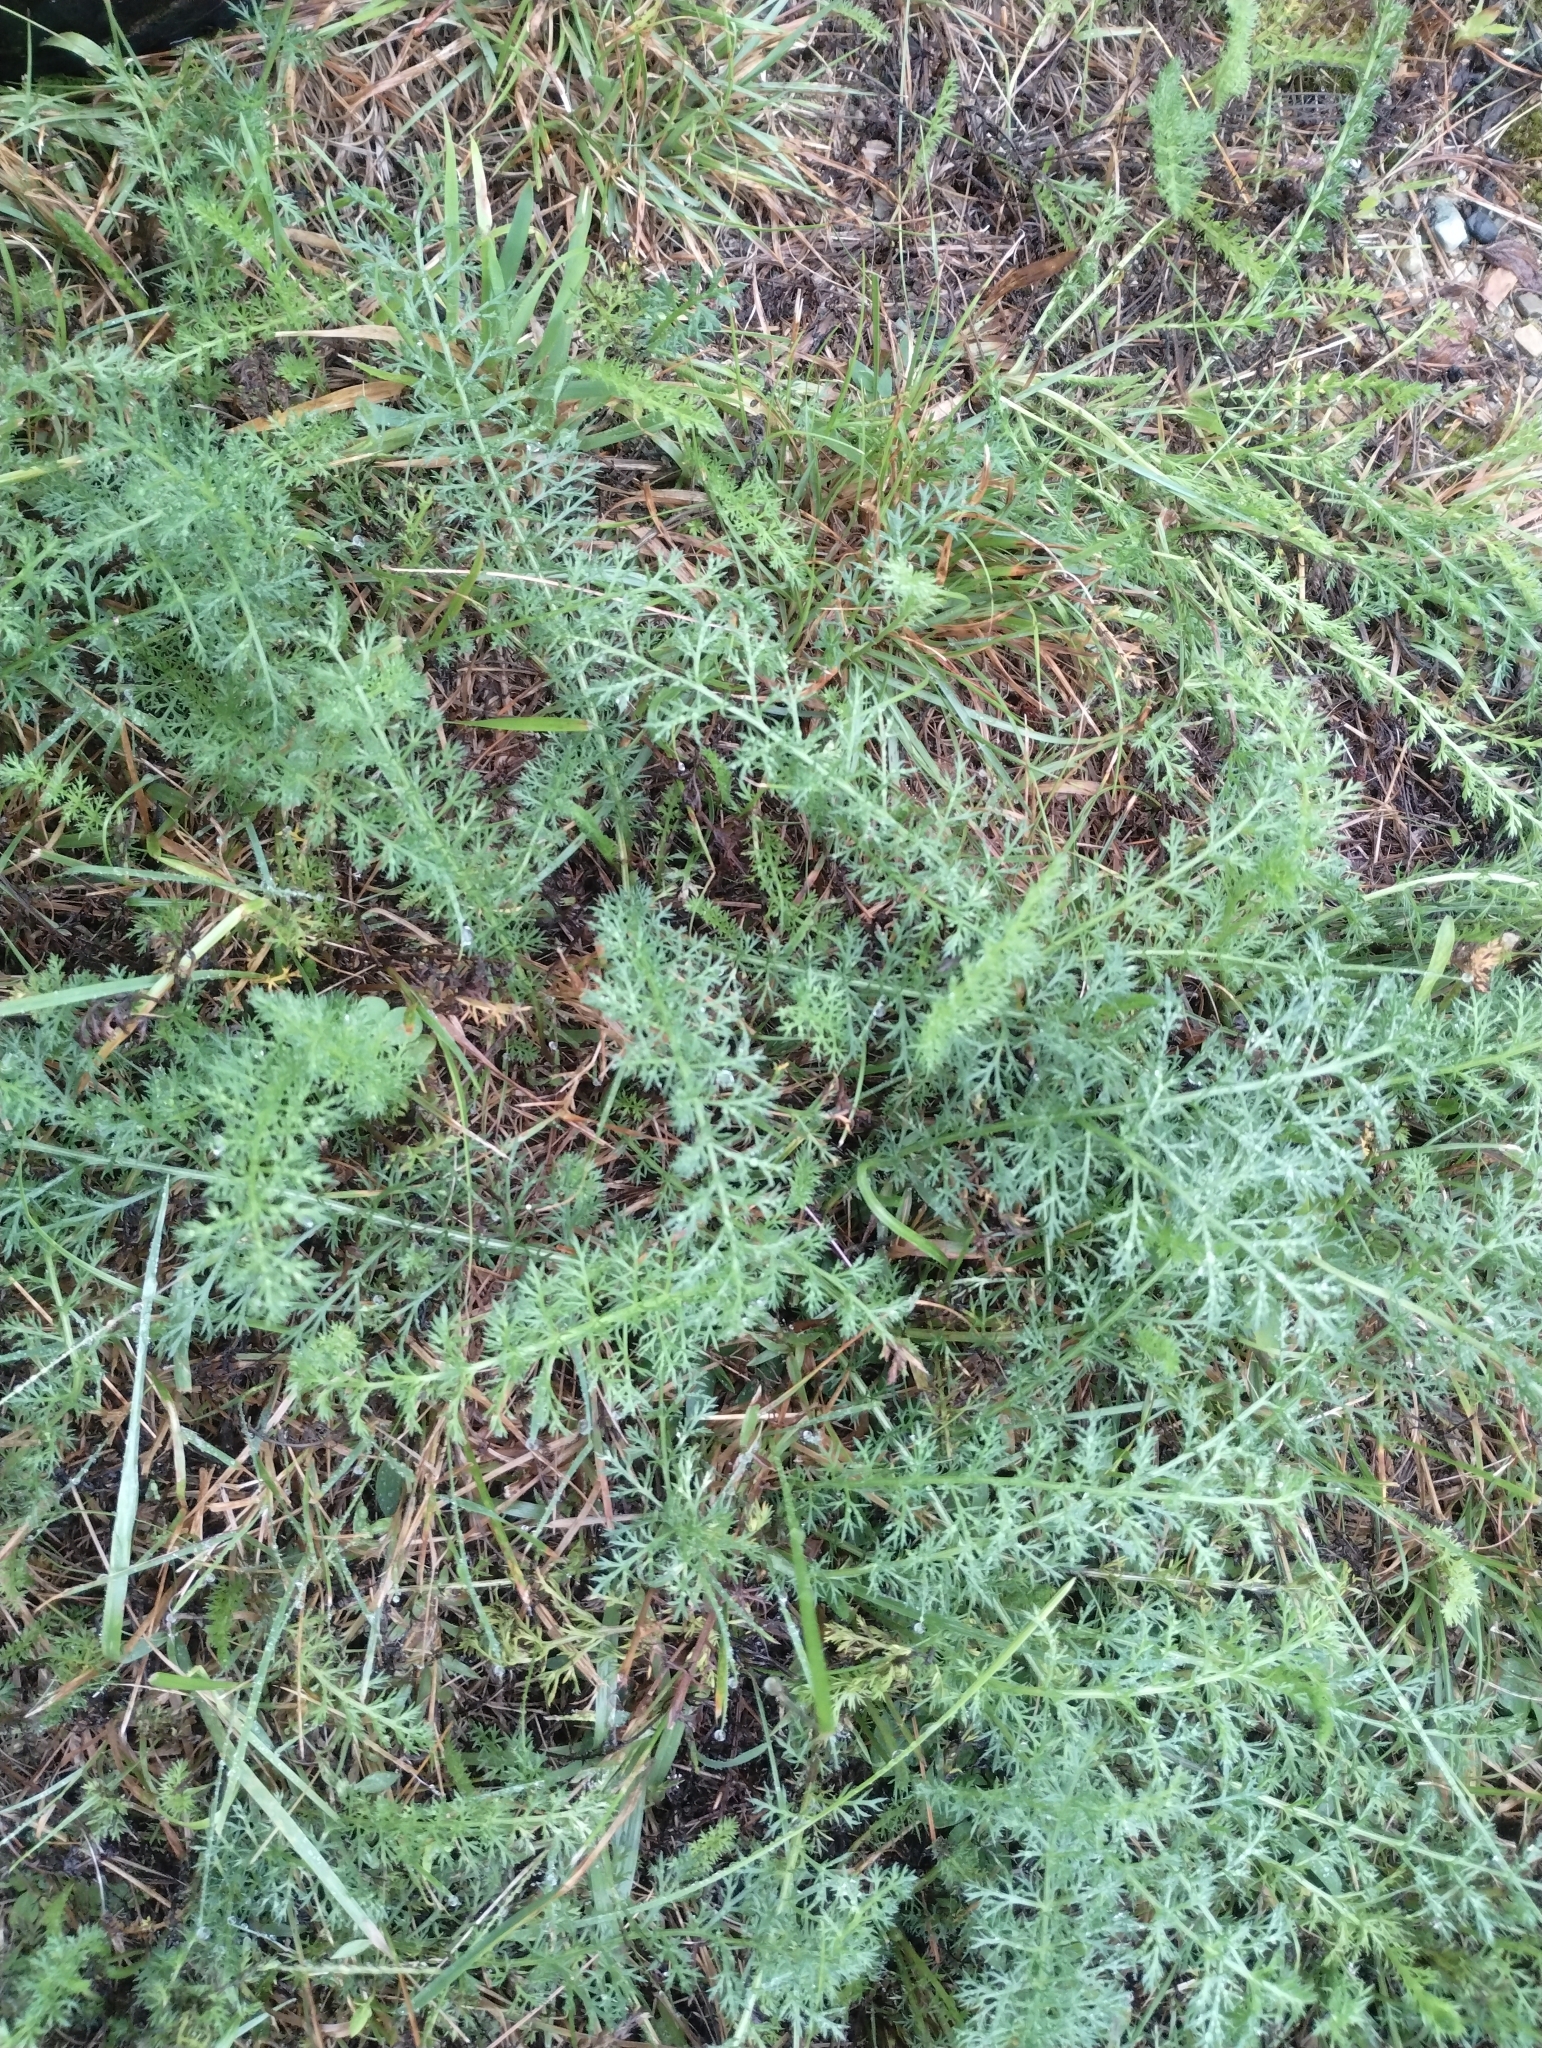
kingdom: Plantae
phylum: Tracheophyta
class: Magnoliopsida
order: Asterales
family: Asteraceae
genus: Achillea
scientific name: Achillea millefolium
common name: Yarrow
